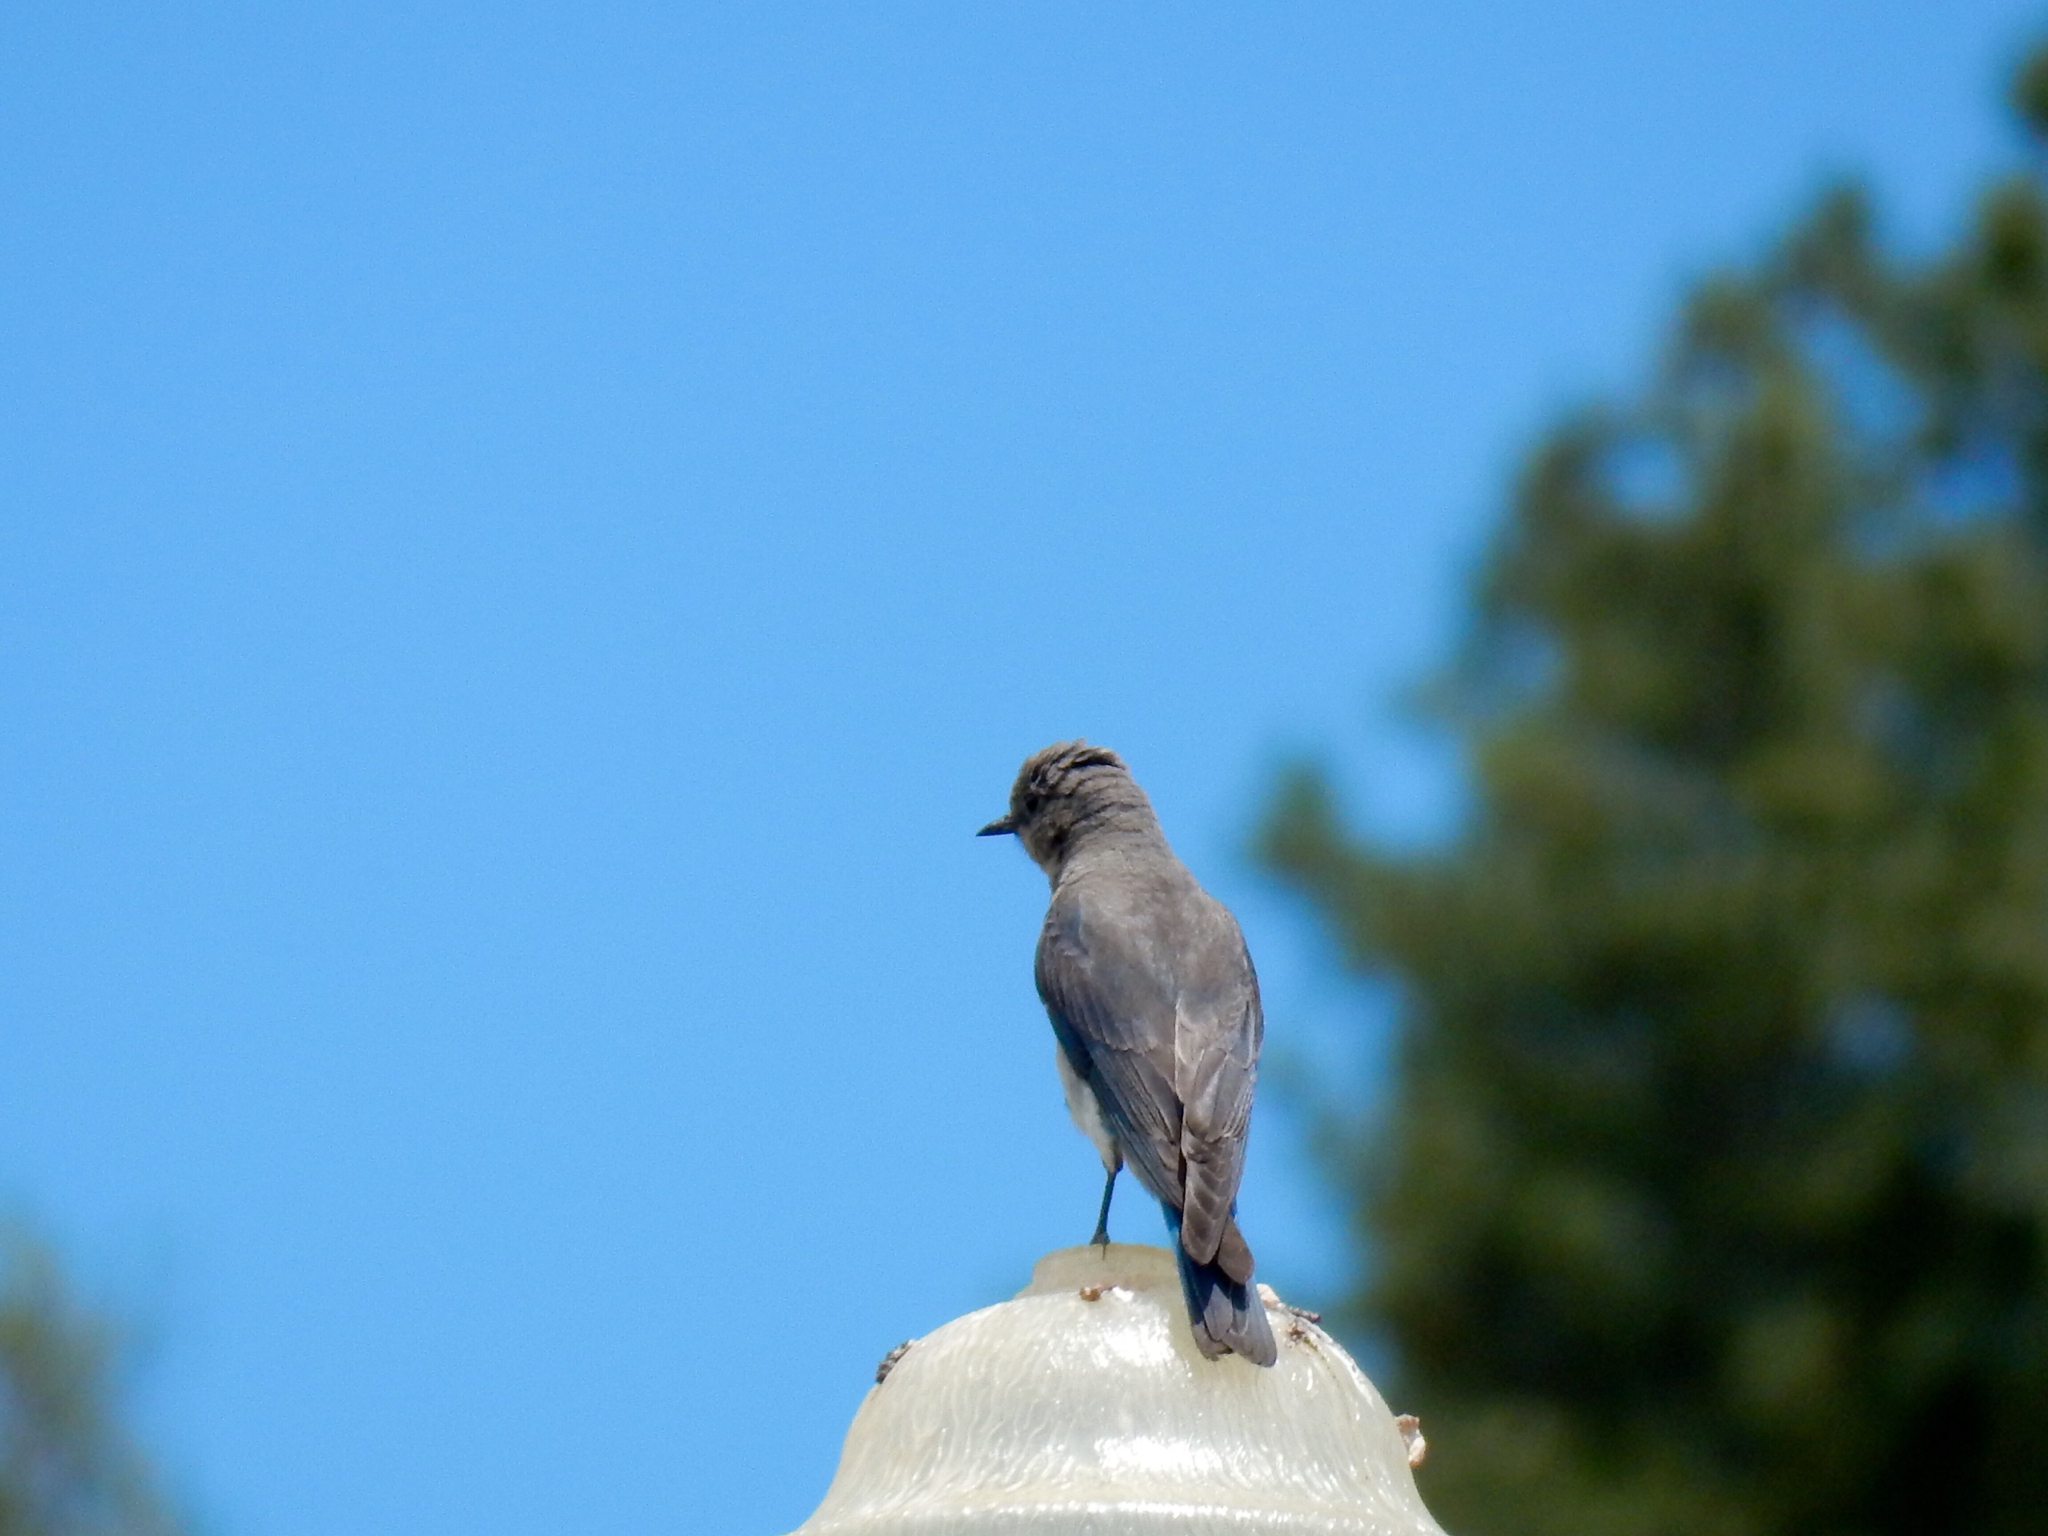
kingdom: Animalia
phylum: Chordata
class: Aves
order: Passeriformes
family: Turdidae
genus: Sialia
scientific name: Sialia currucoides
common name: Mountain bluebird
